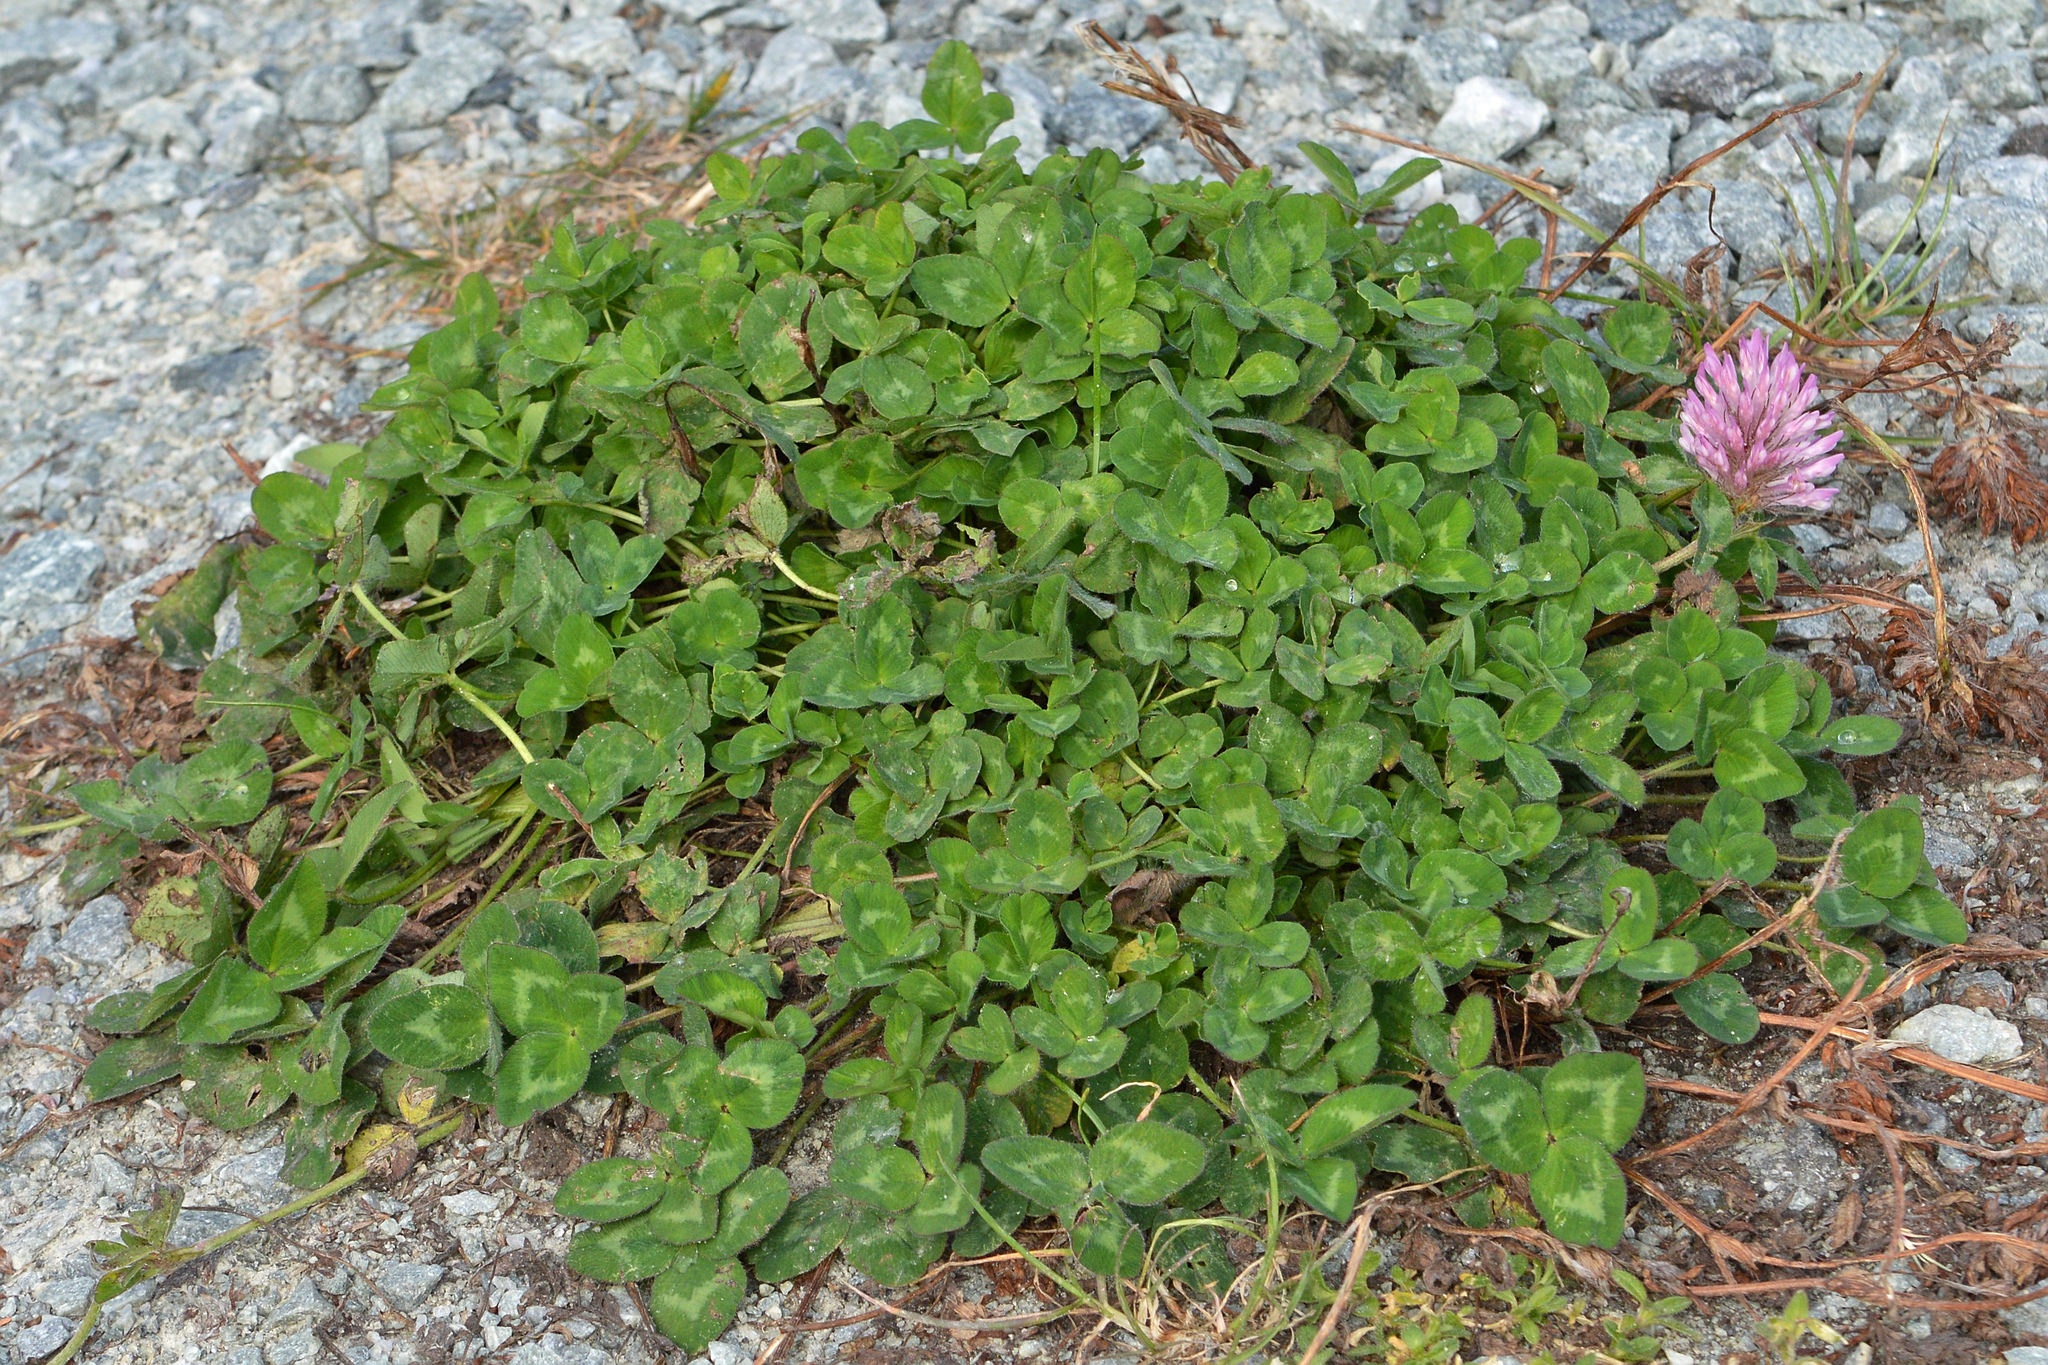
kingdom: Plantae
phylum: Tracheophyta
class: Magnoliopsida
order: Fabales
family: Fabaceae
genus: Trifolium
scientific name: Trifolium pratense
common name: Red clover
